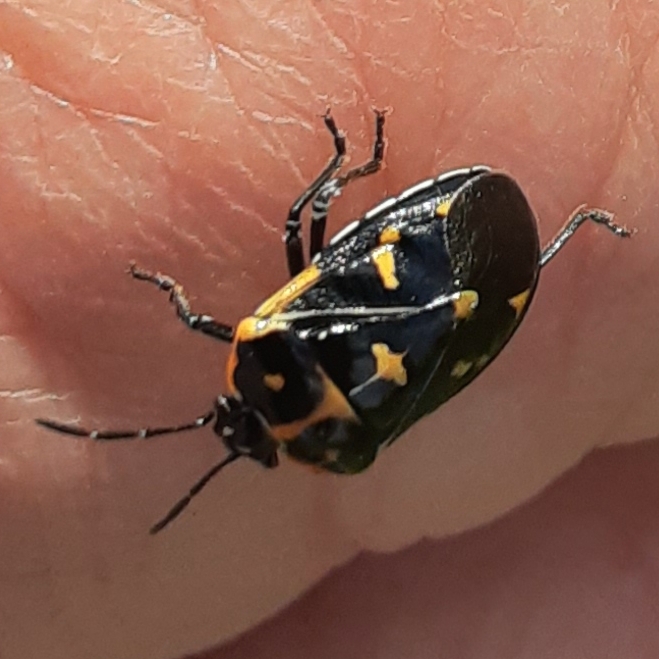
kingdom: Animalia
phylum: Arthropoda
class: Insecta
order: Hemiptera
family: Pentatomidae
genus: Murgantia
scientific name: Murgantia histrionica
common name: Harlequin bug
